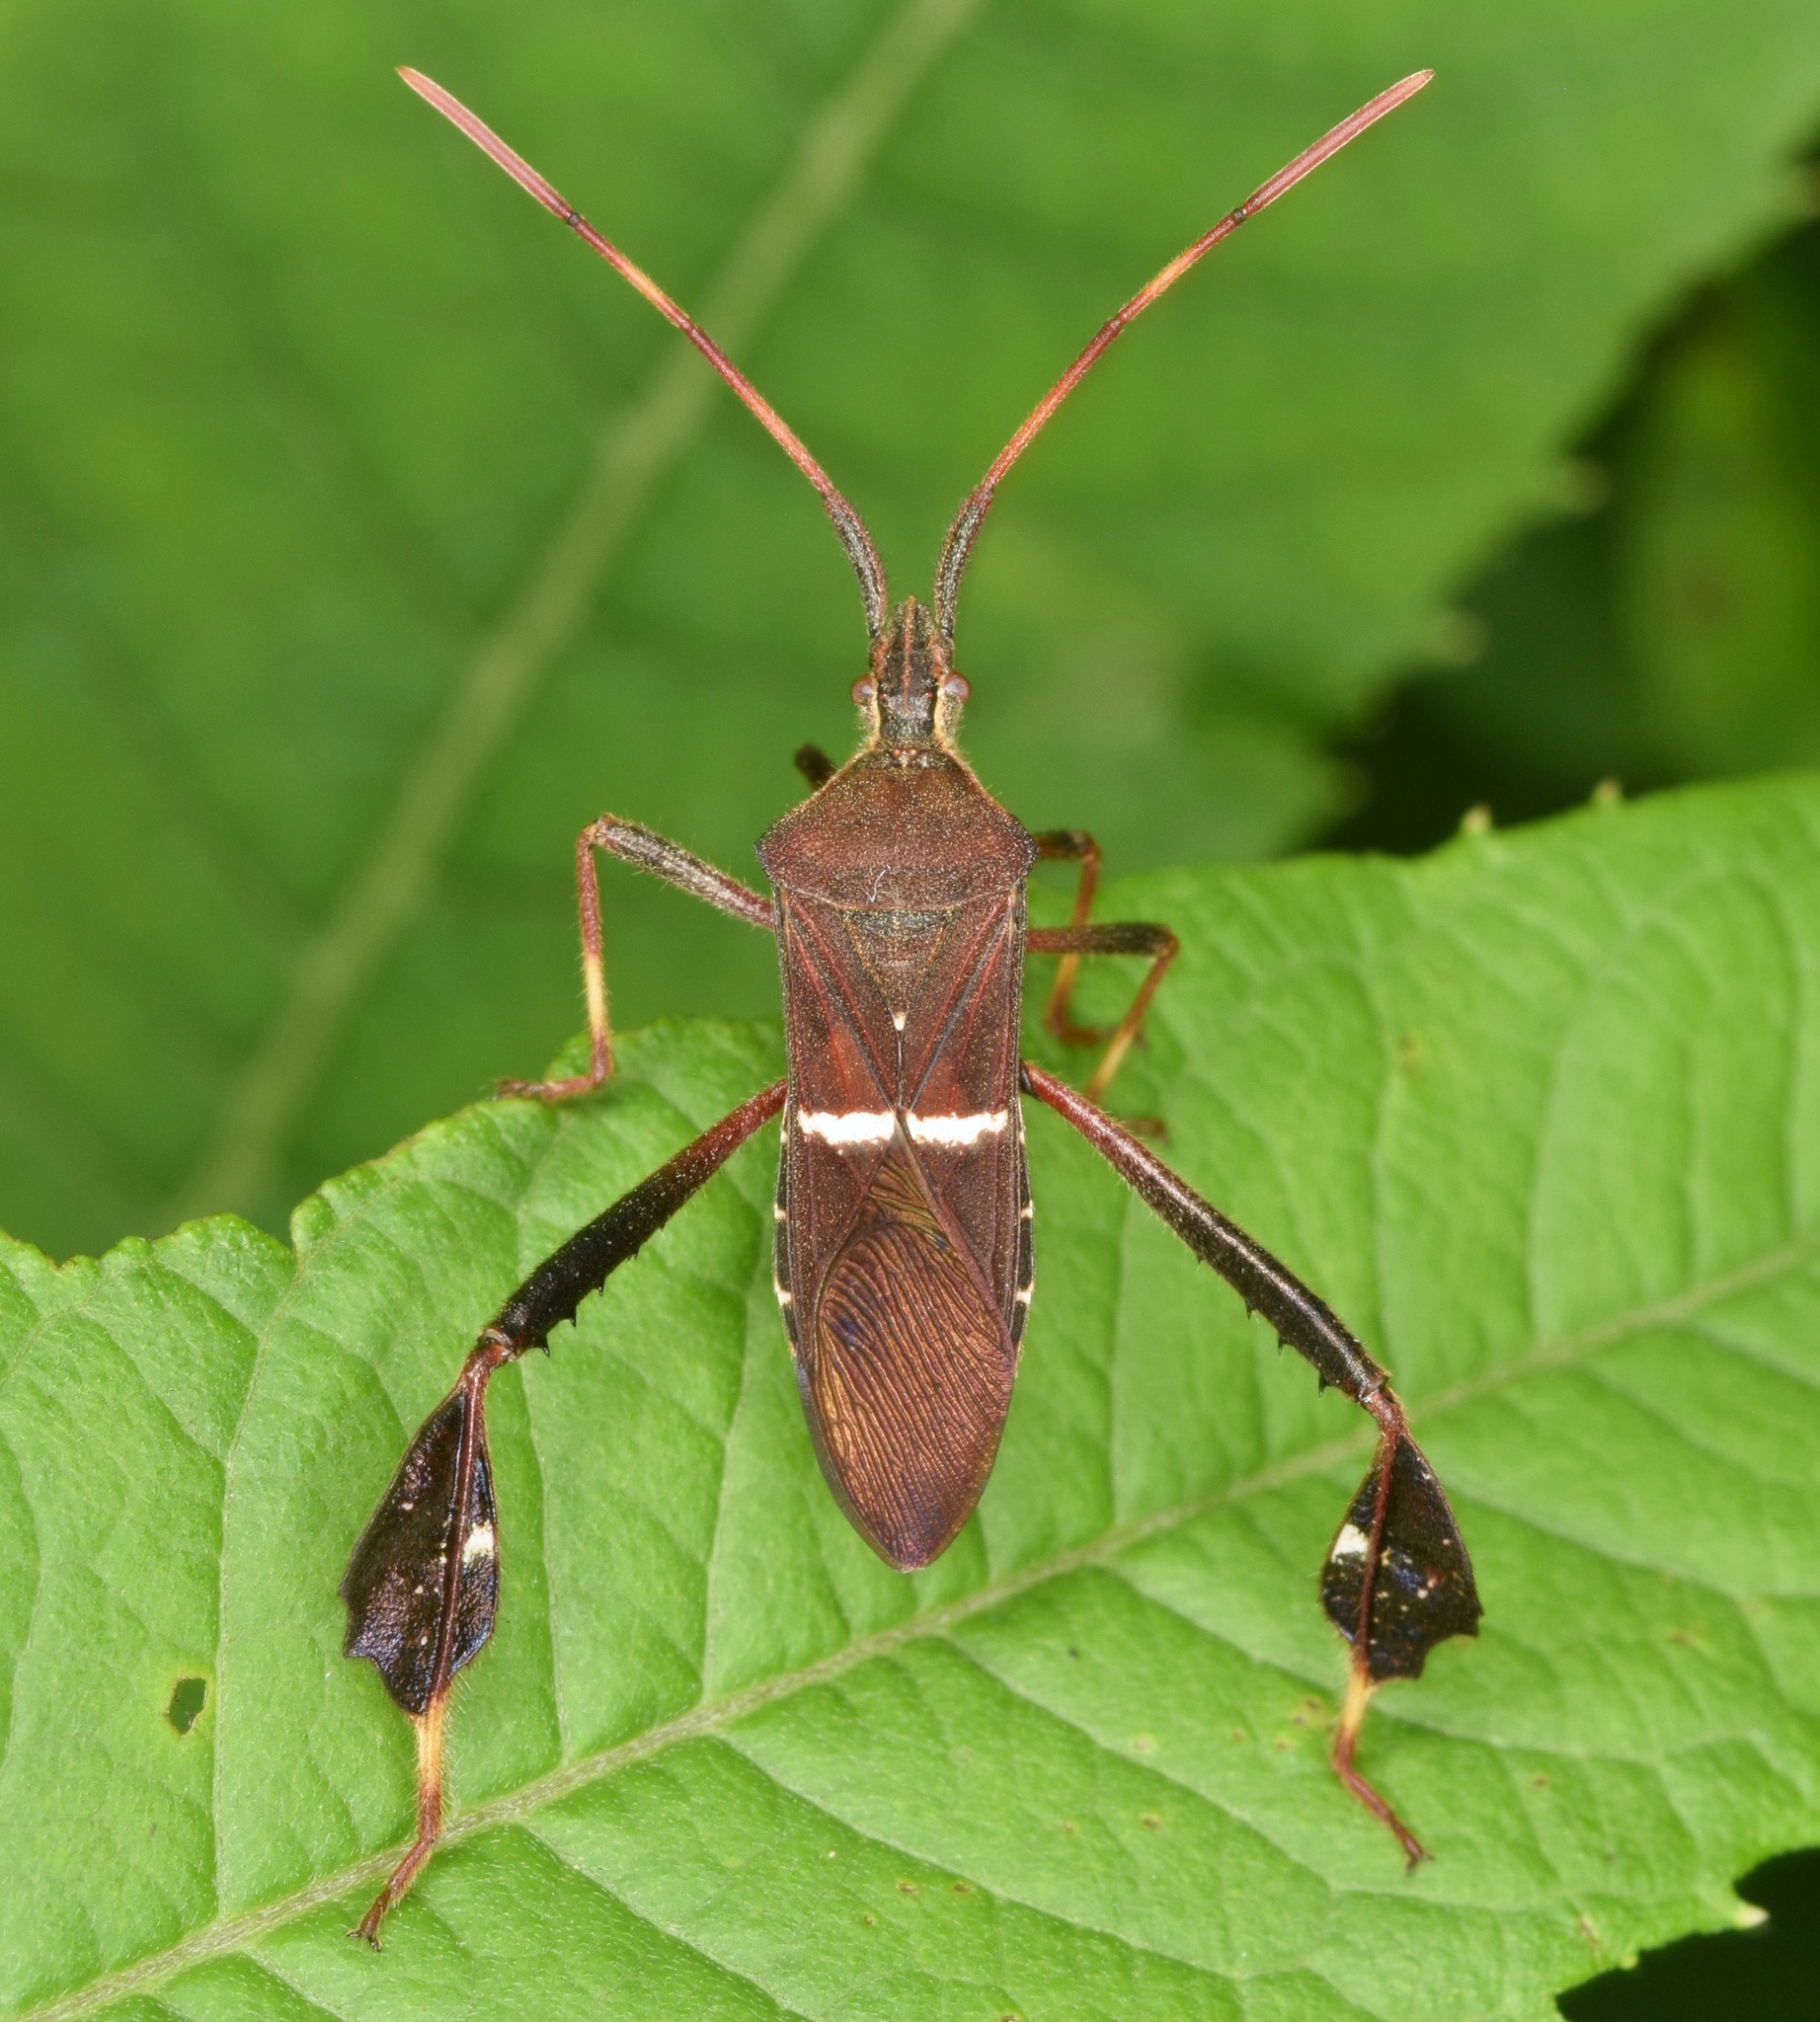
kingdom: Animalia
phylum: Arthropoda
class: Insecta
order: Hemiptera
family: Coreidae
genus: Leptoglossus
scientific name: Leptoglossus phyllopus
